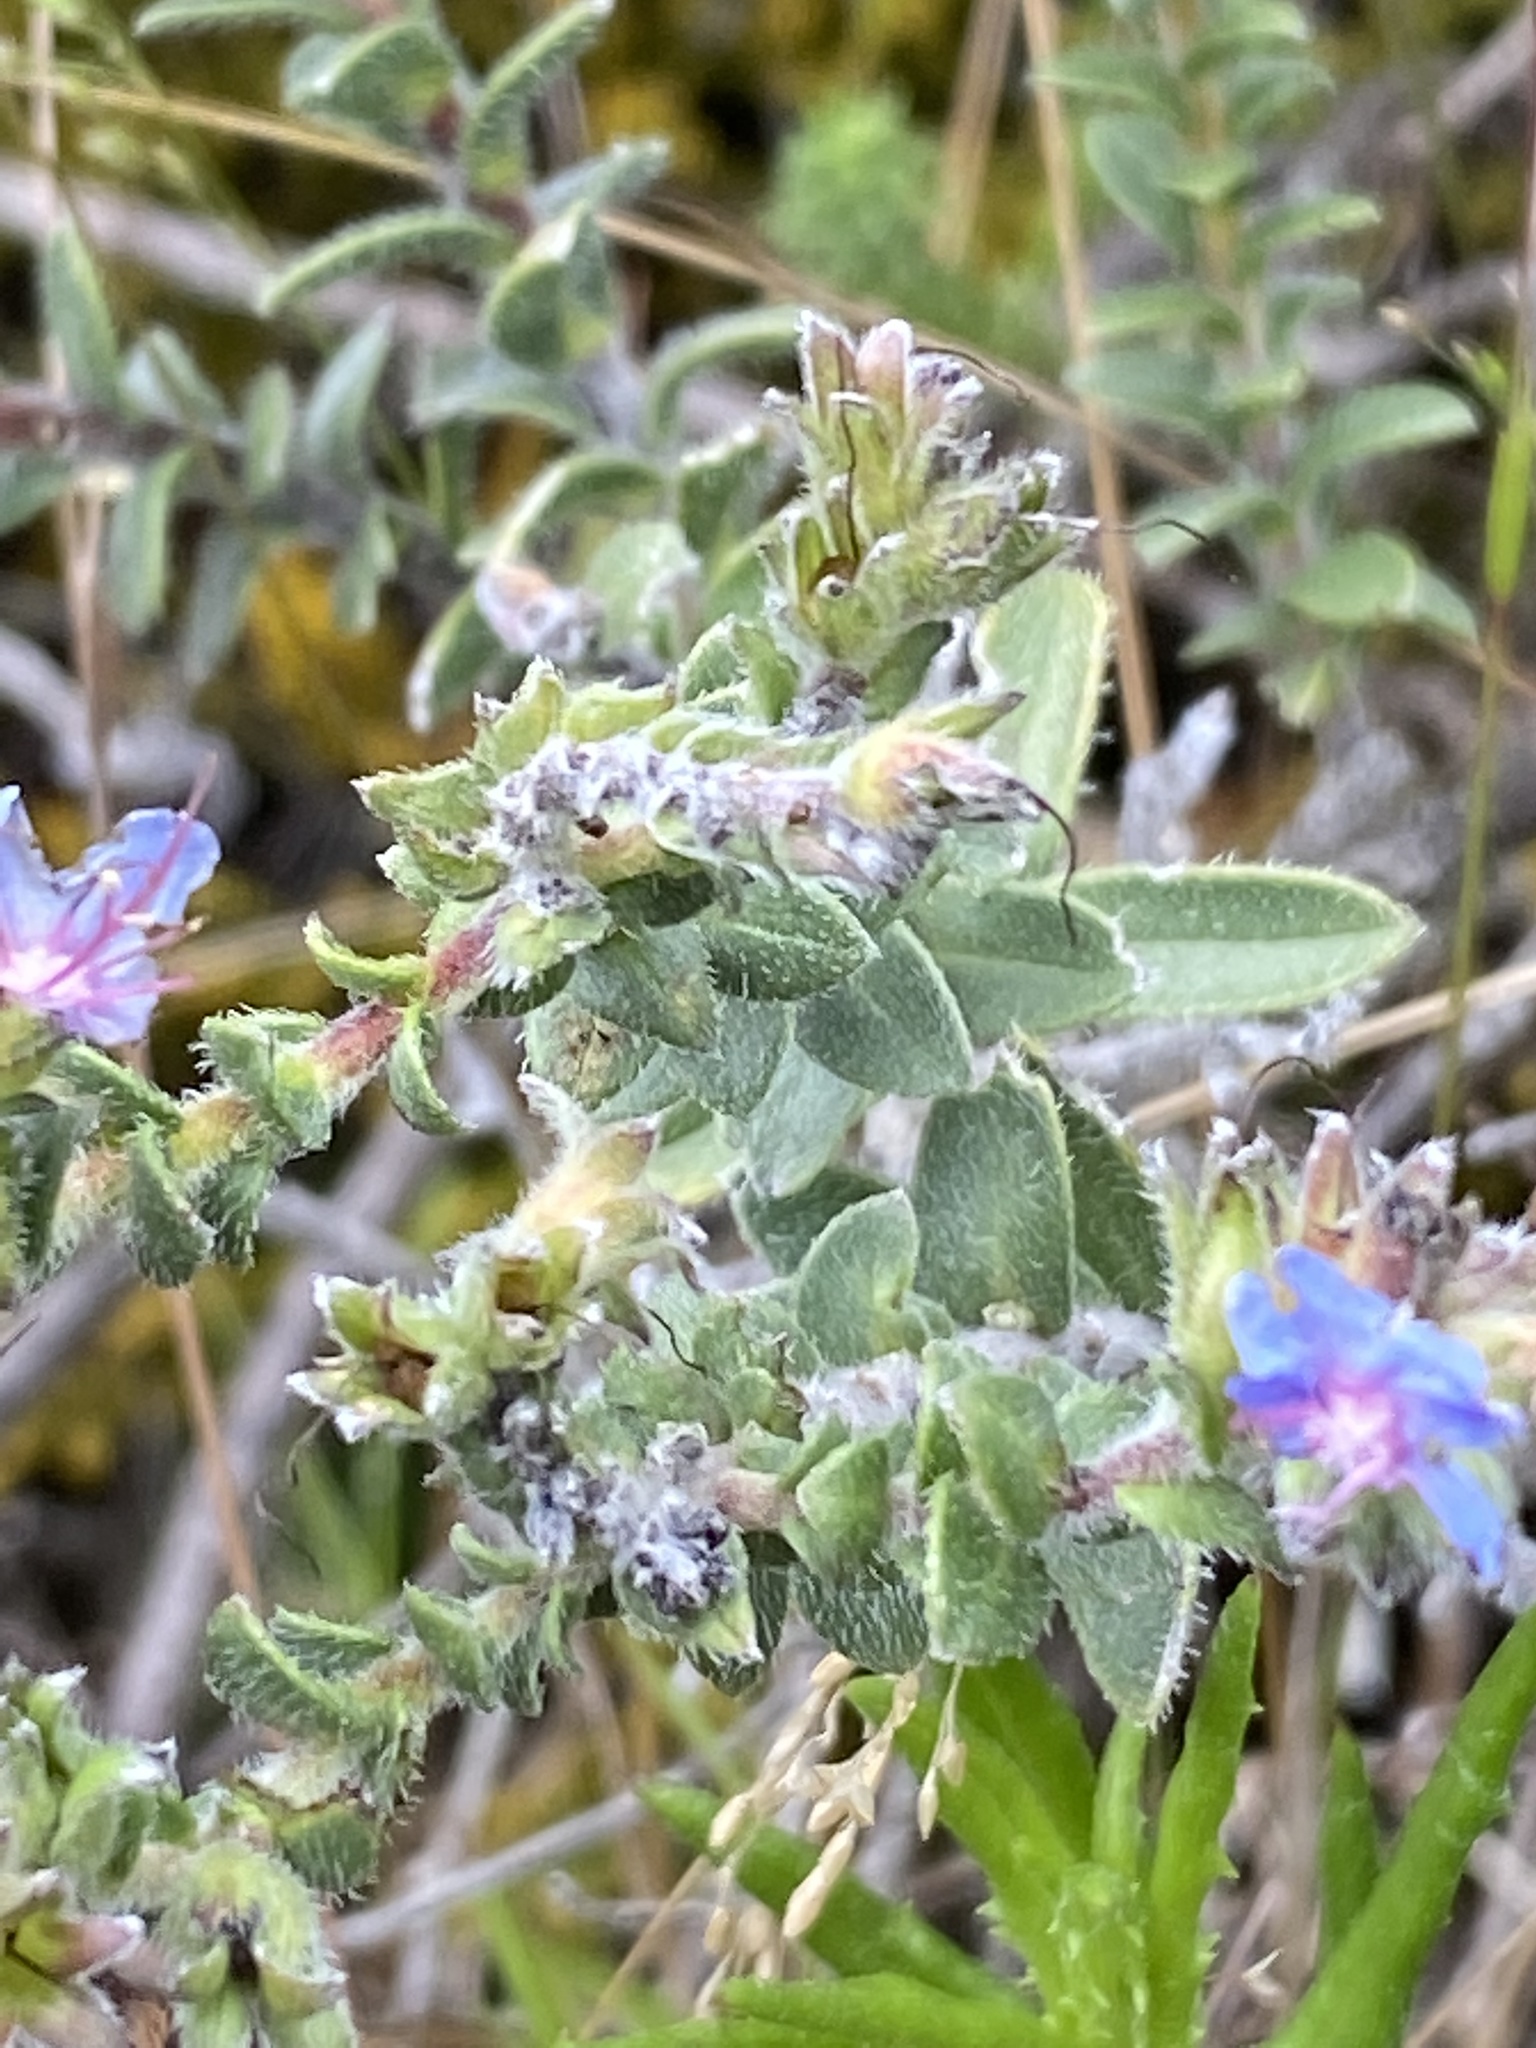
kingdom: Plantae
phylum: Tracheophyta
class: Magnoliopsida
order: Boraginales
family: Boraginaceae
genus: Lobostemon
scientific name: Lobostemon echioides
